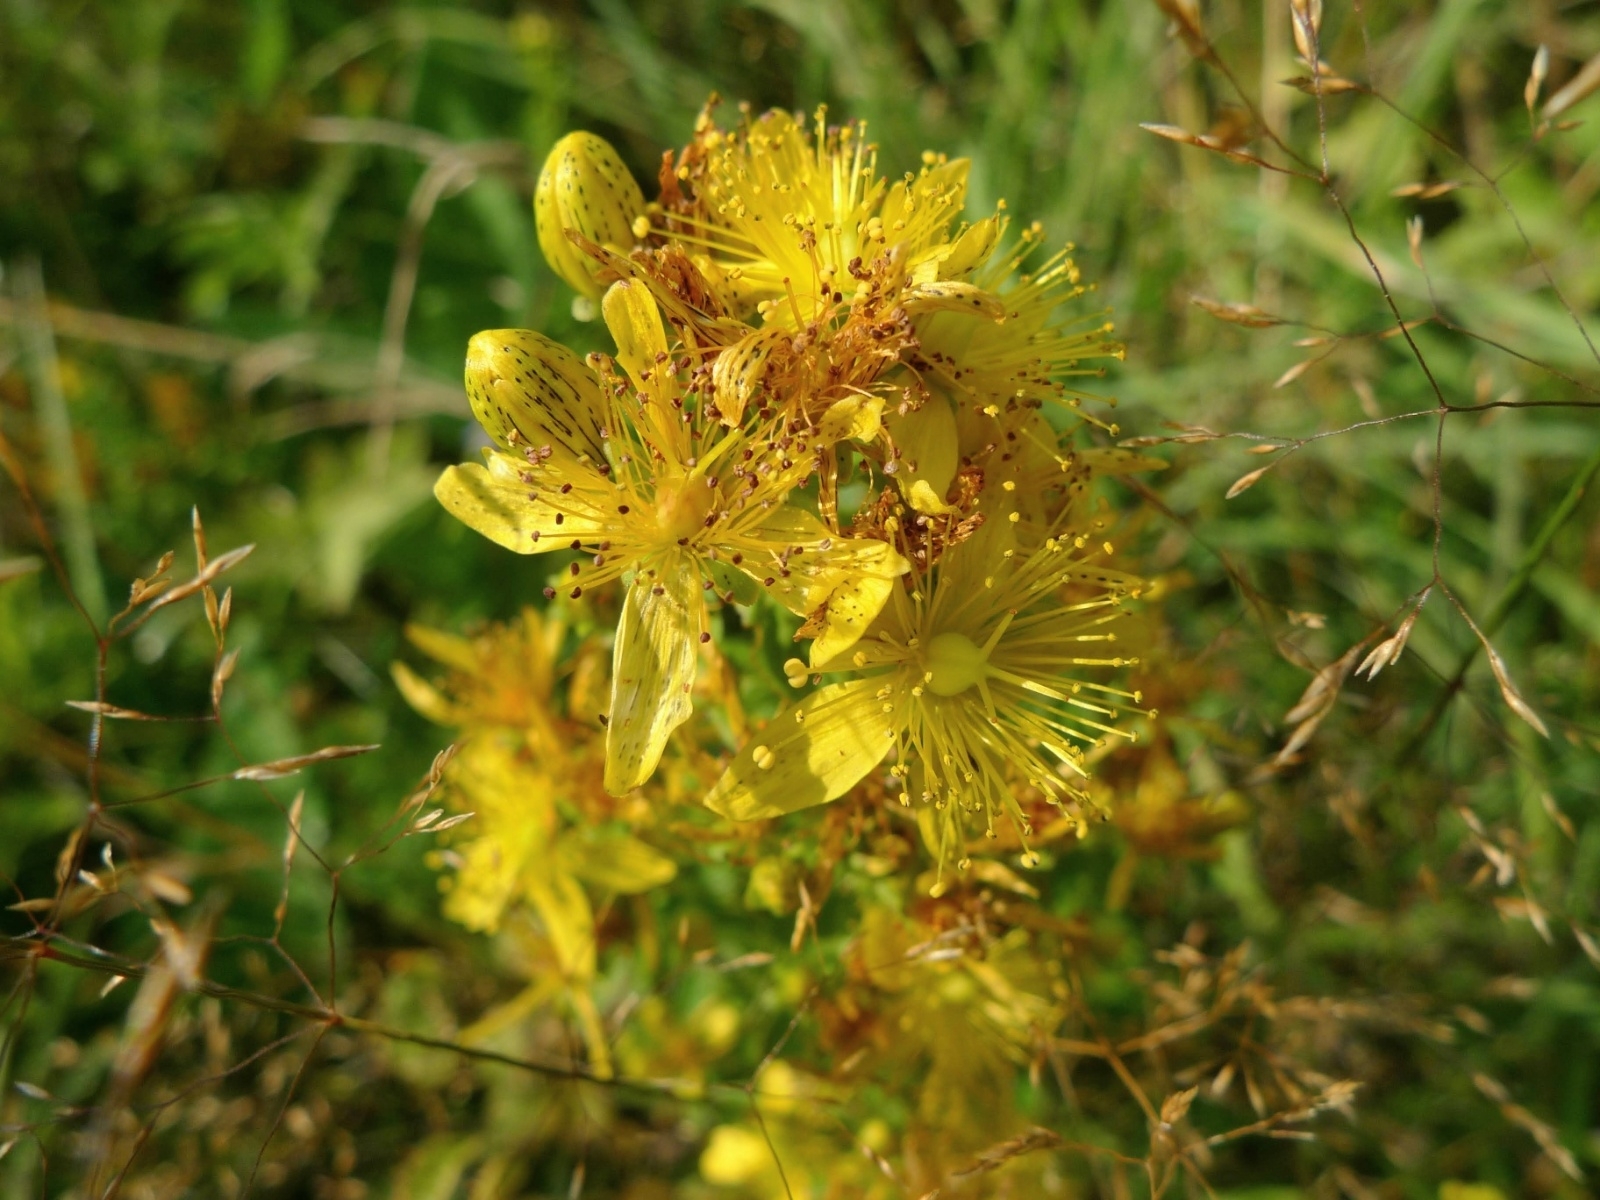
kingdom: Plantae
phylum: Tracheophyta
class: Magnoliopsida
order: Malpighiales
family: Hypericaceae
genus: Hypericum
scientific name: Hypericum maculatum
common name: Imperforate st. john's-wort
